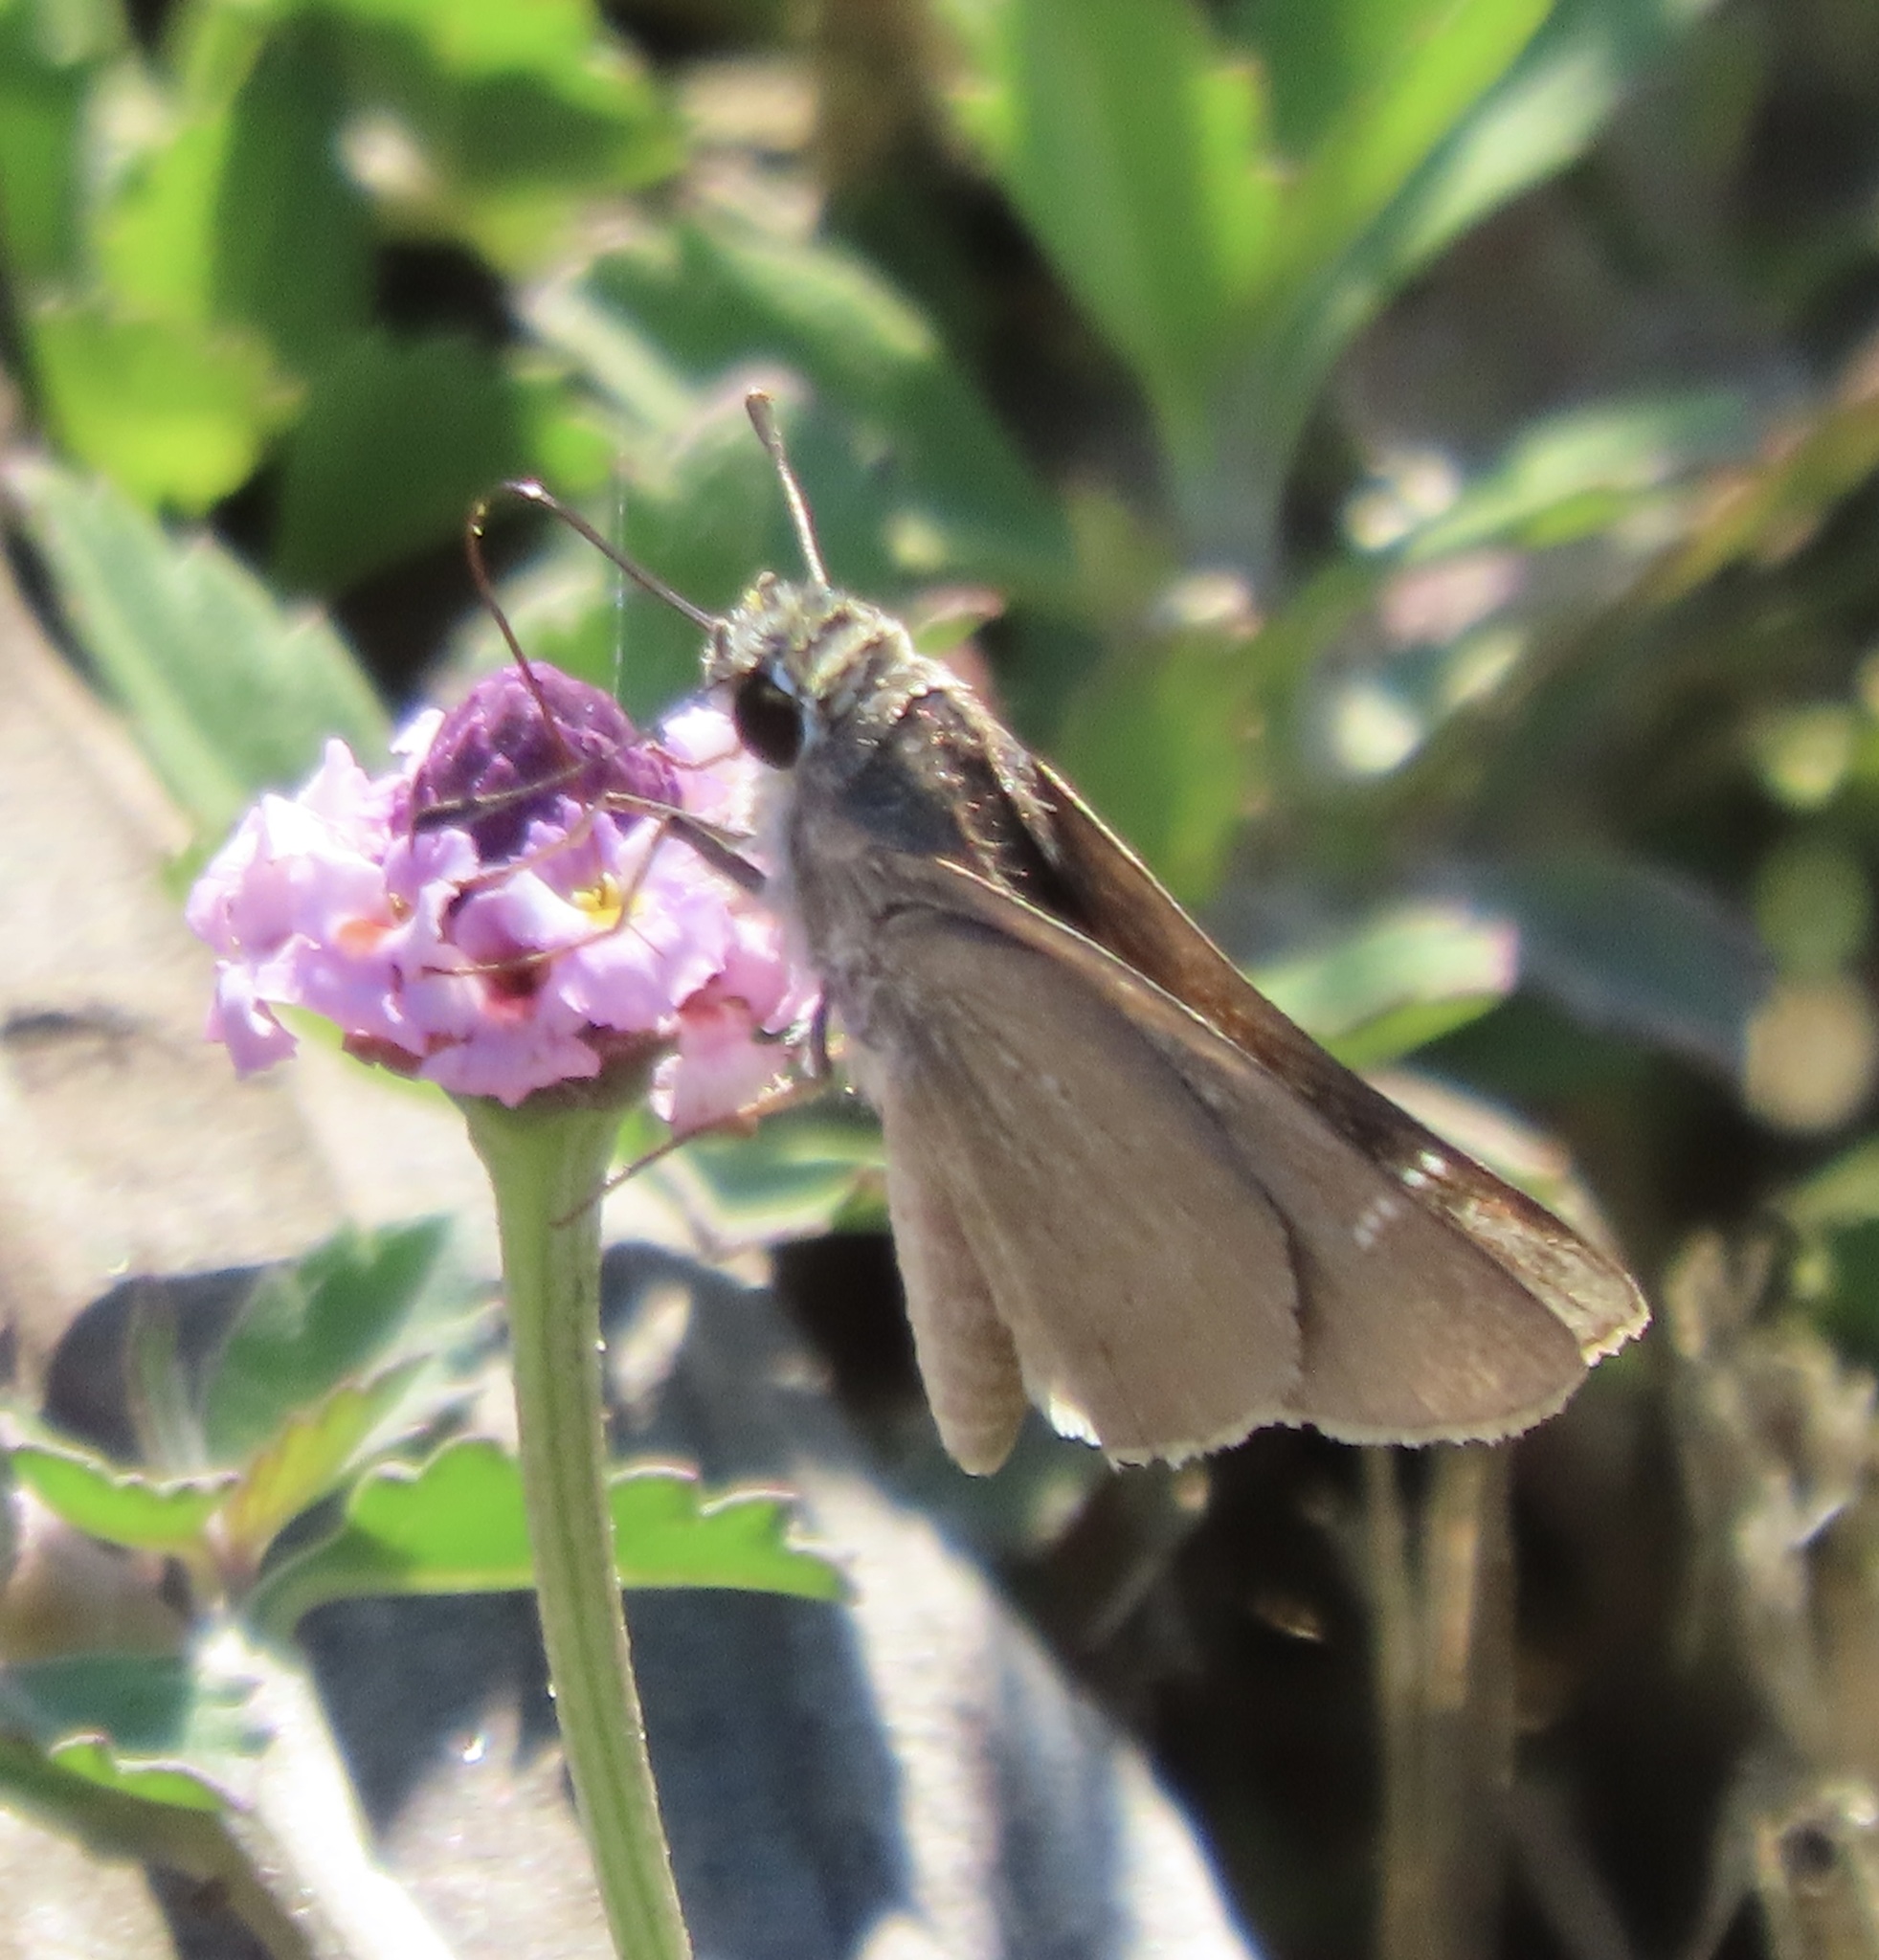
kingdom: Animalia
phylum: Arthropoda
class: Insecta
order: Lepidoptera
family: Hesperiidae
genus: Lerodea
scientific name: Lerodea eufala
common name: Eufala skipper
